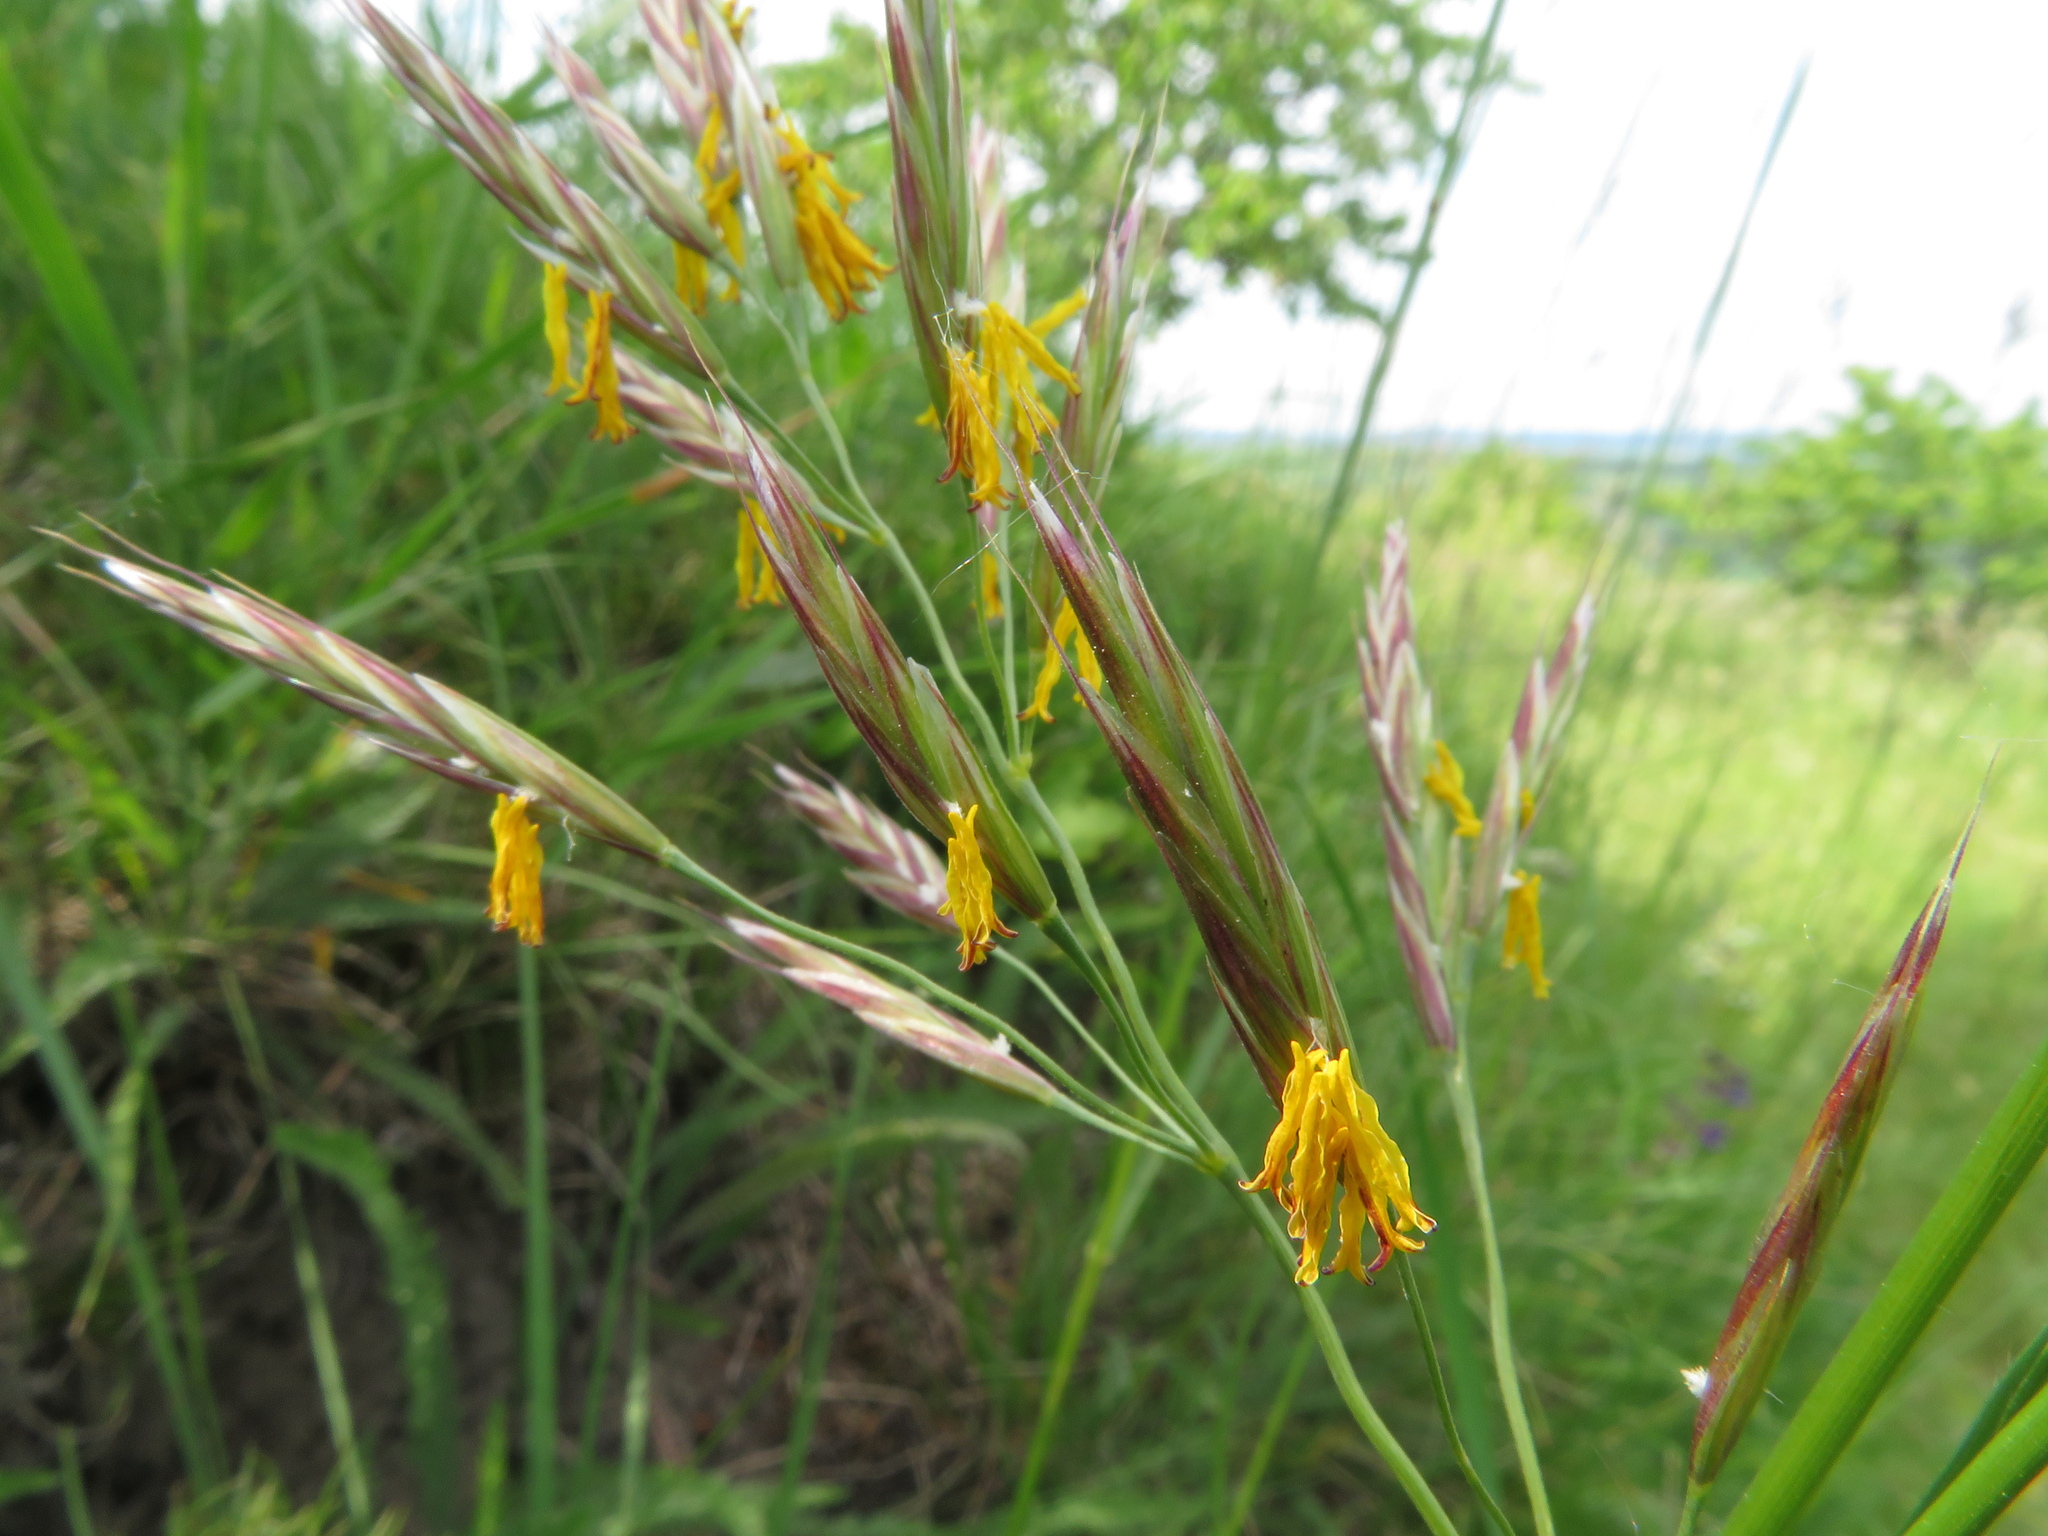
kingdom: Plantae
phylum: Tracheophyta
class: Liliopsida
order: Poales
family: Poaceae
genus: Bromus
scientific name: Bromus erectus
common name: Erect brome
